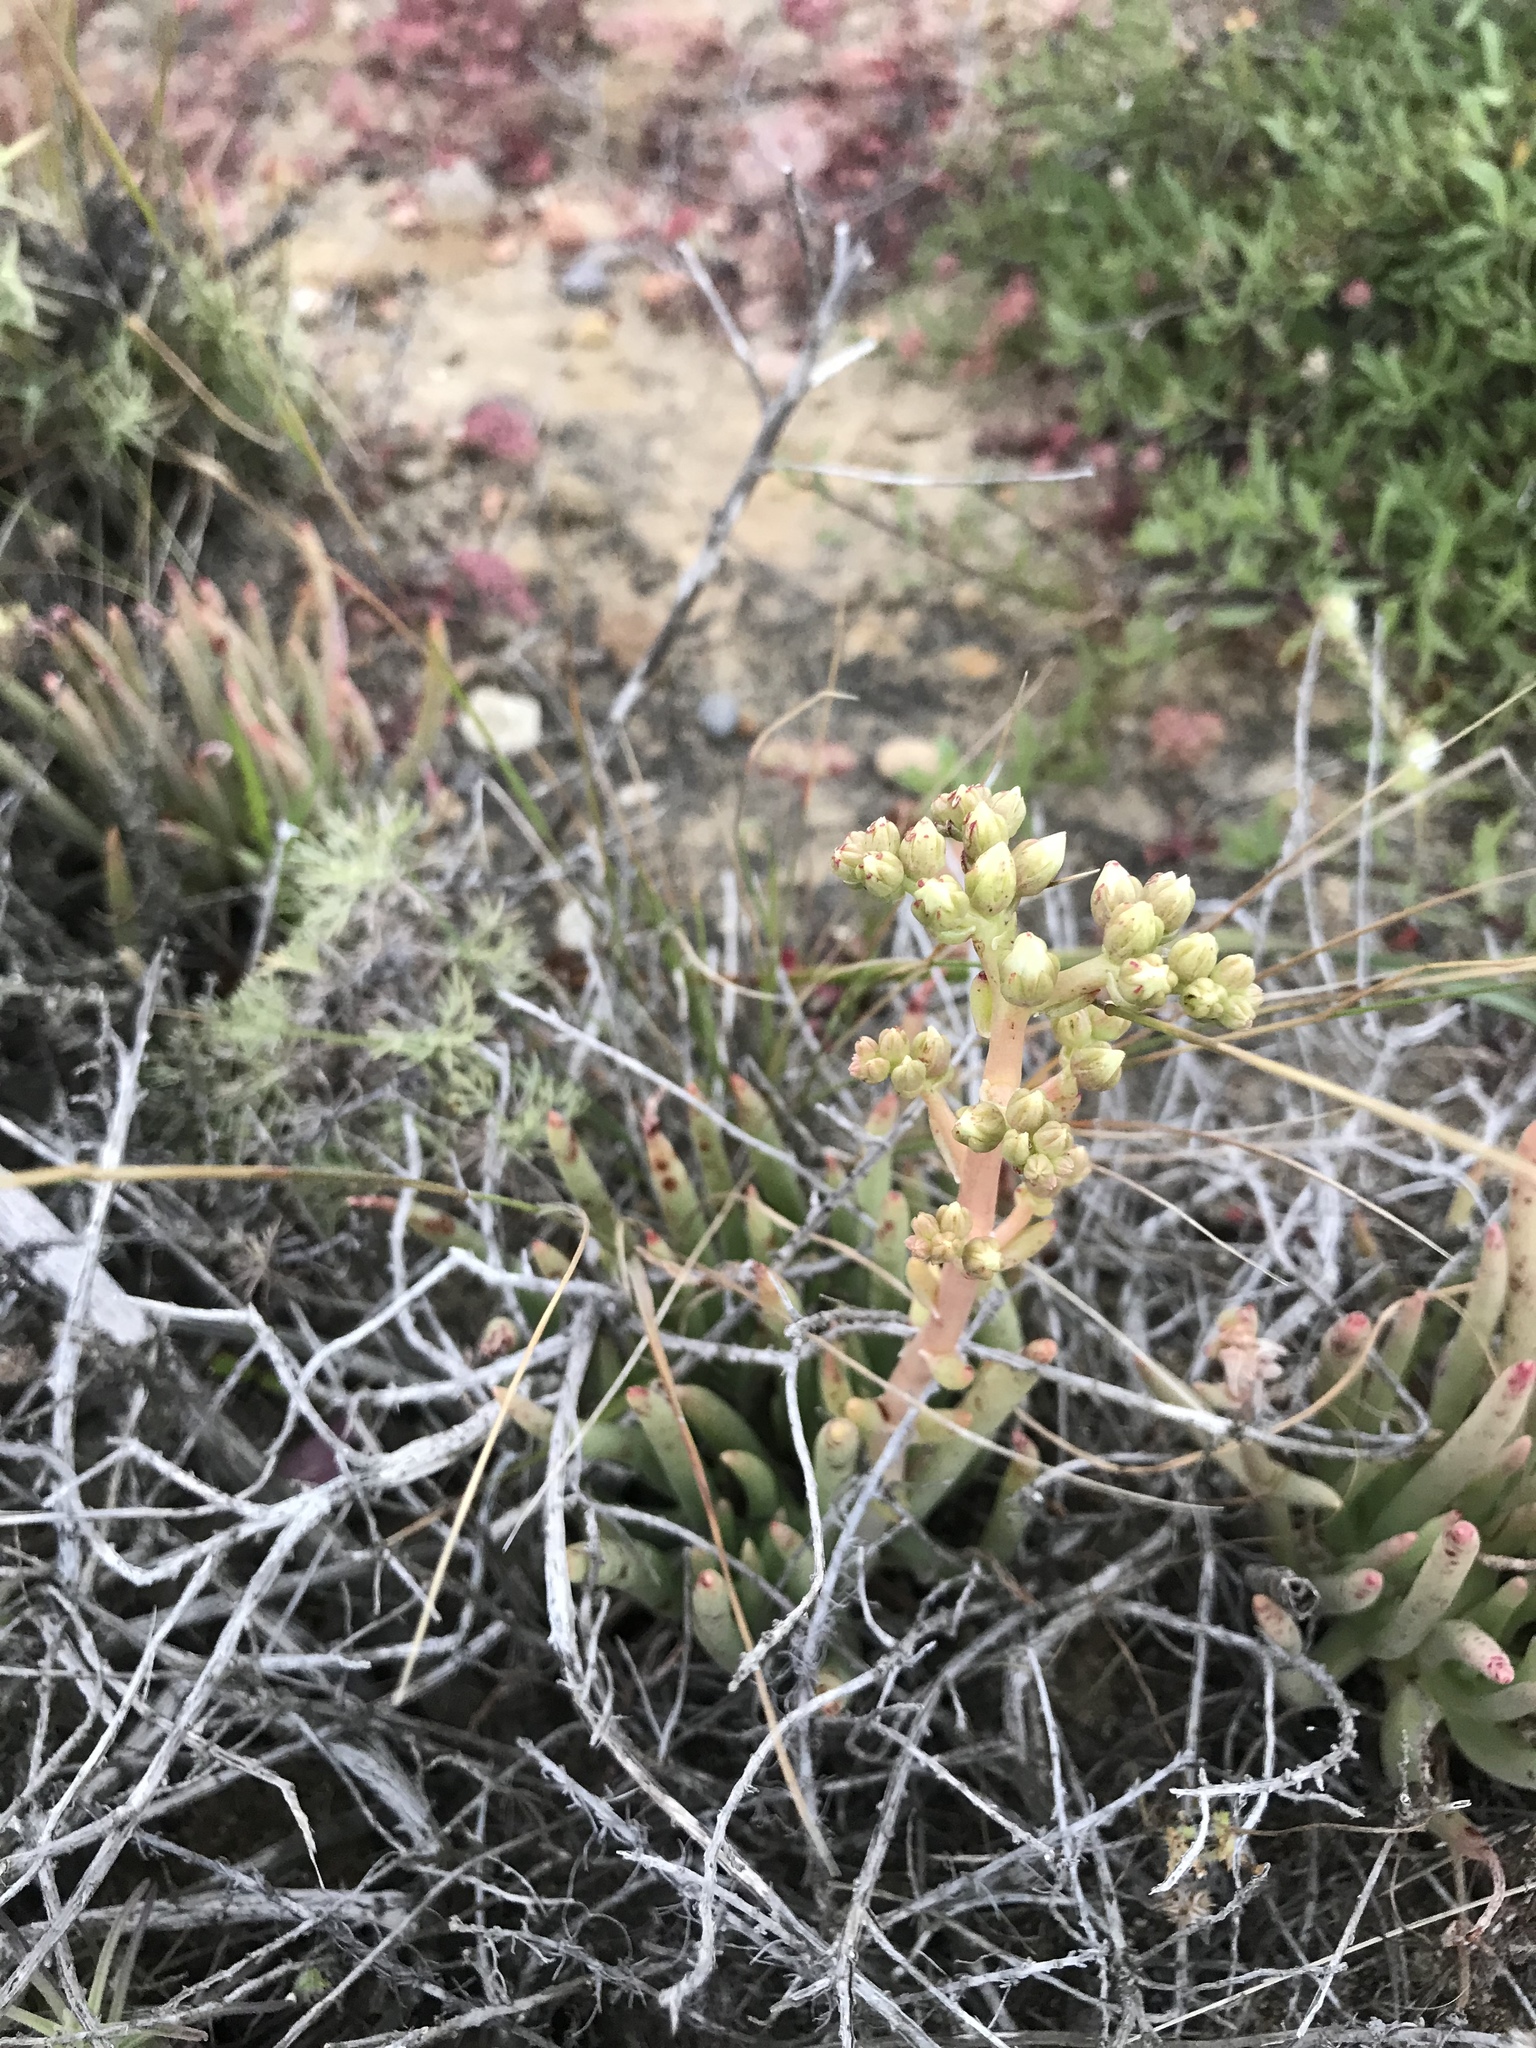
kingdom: Plantae
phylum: Tracheophyta
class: Magnoliopsida
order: Saxifragales
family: Crassulaceae
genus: Dudleya
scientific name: Dudleya edulis
